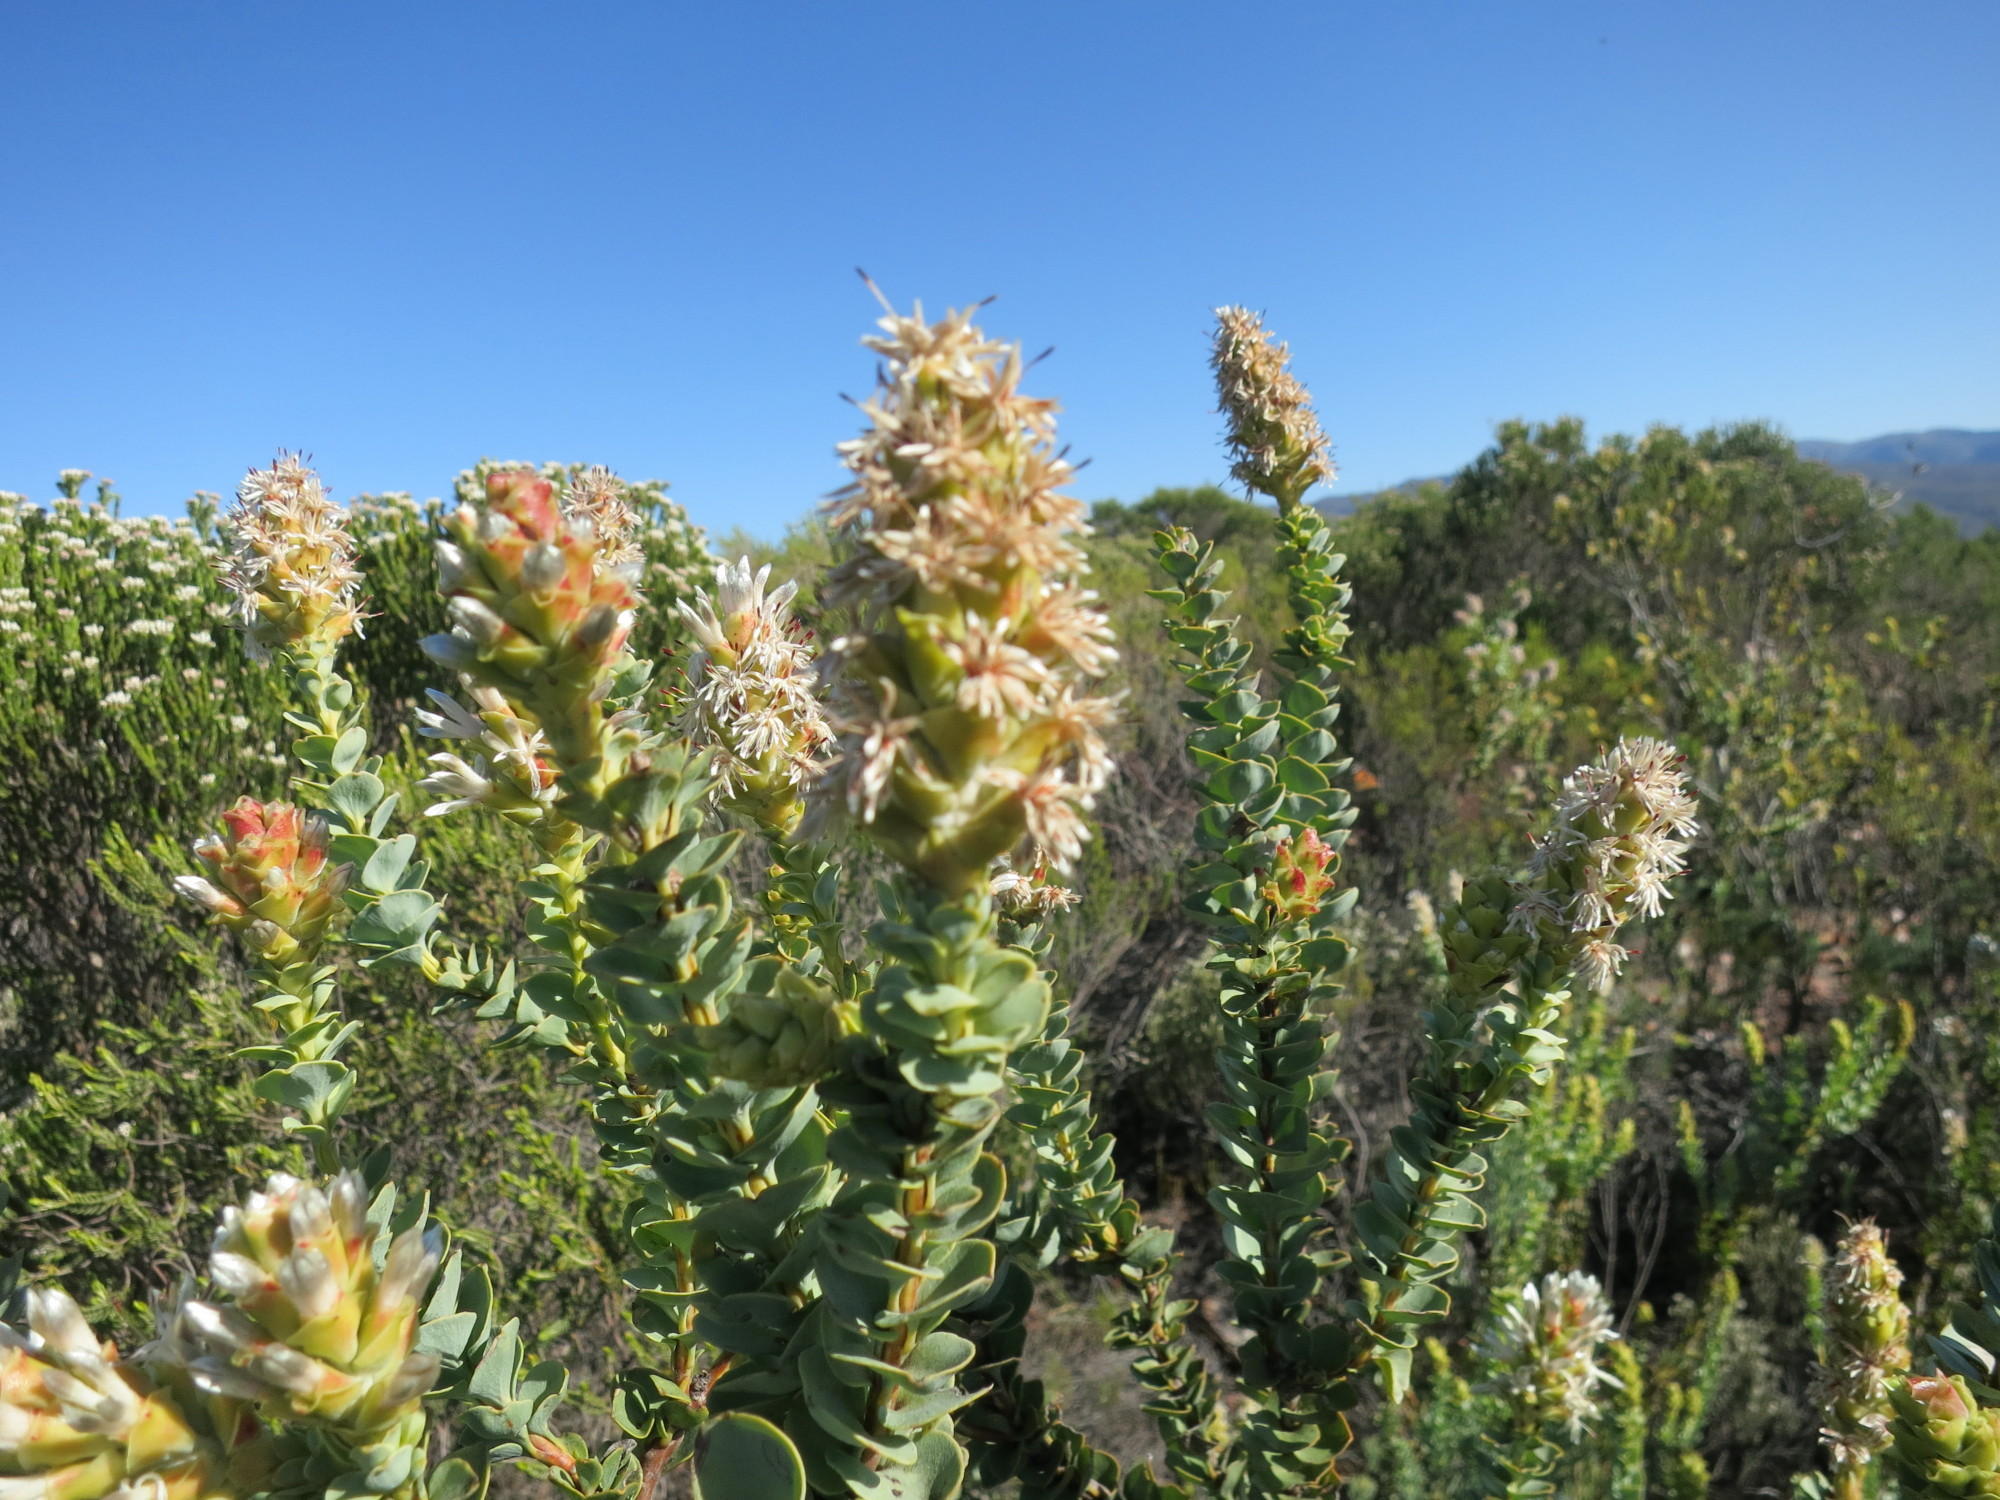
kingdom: Plantae
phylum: Tracheophyta
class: Magnoliopsida
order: Proteales
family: Proteaceae
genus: Paranomus
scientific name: Paranomus roodebergensis
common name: Honey-scented sceptre
